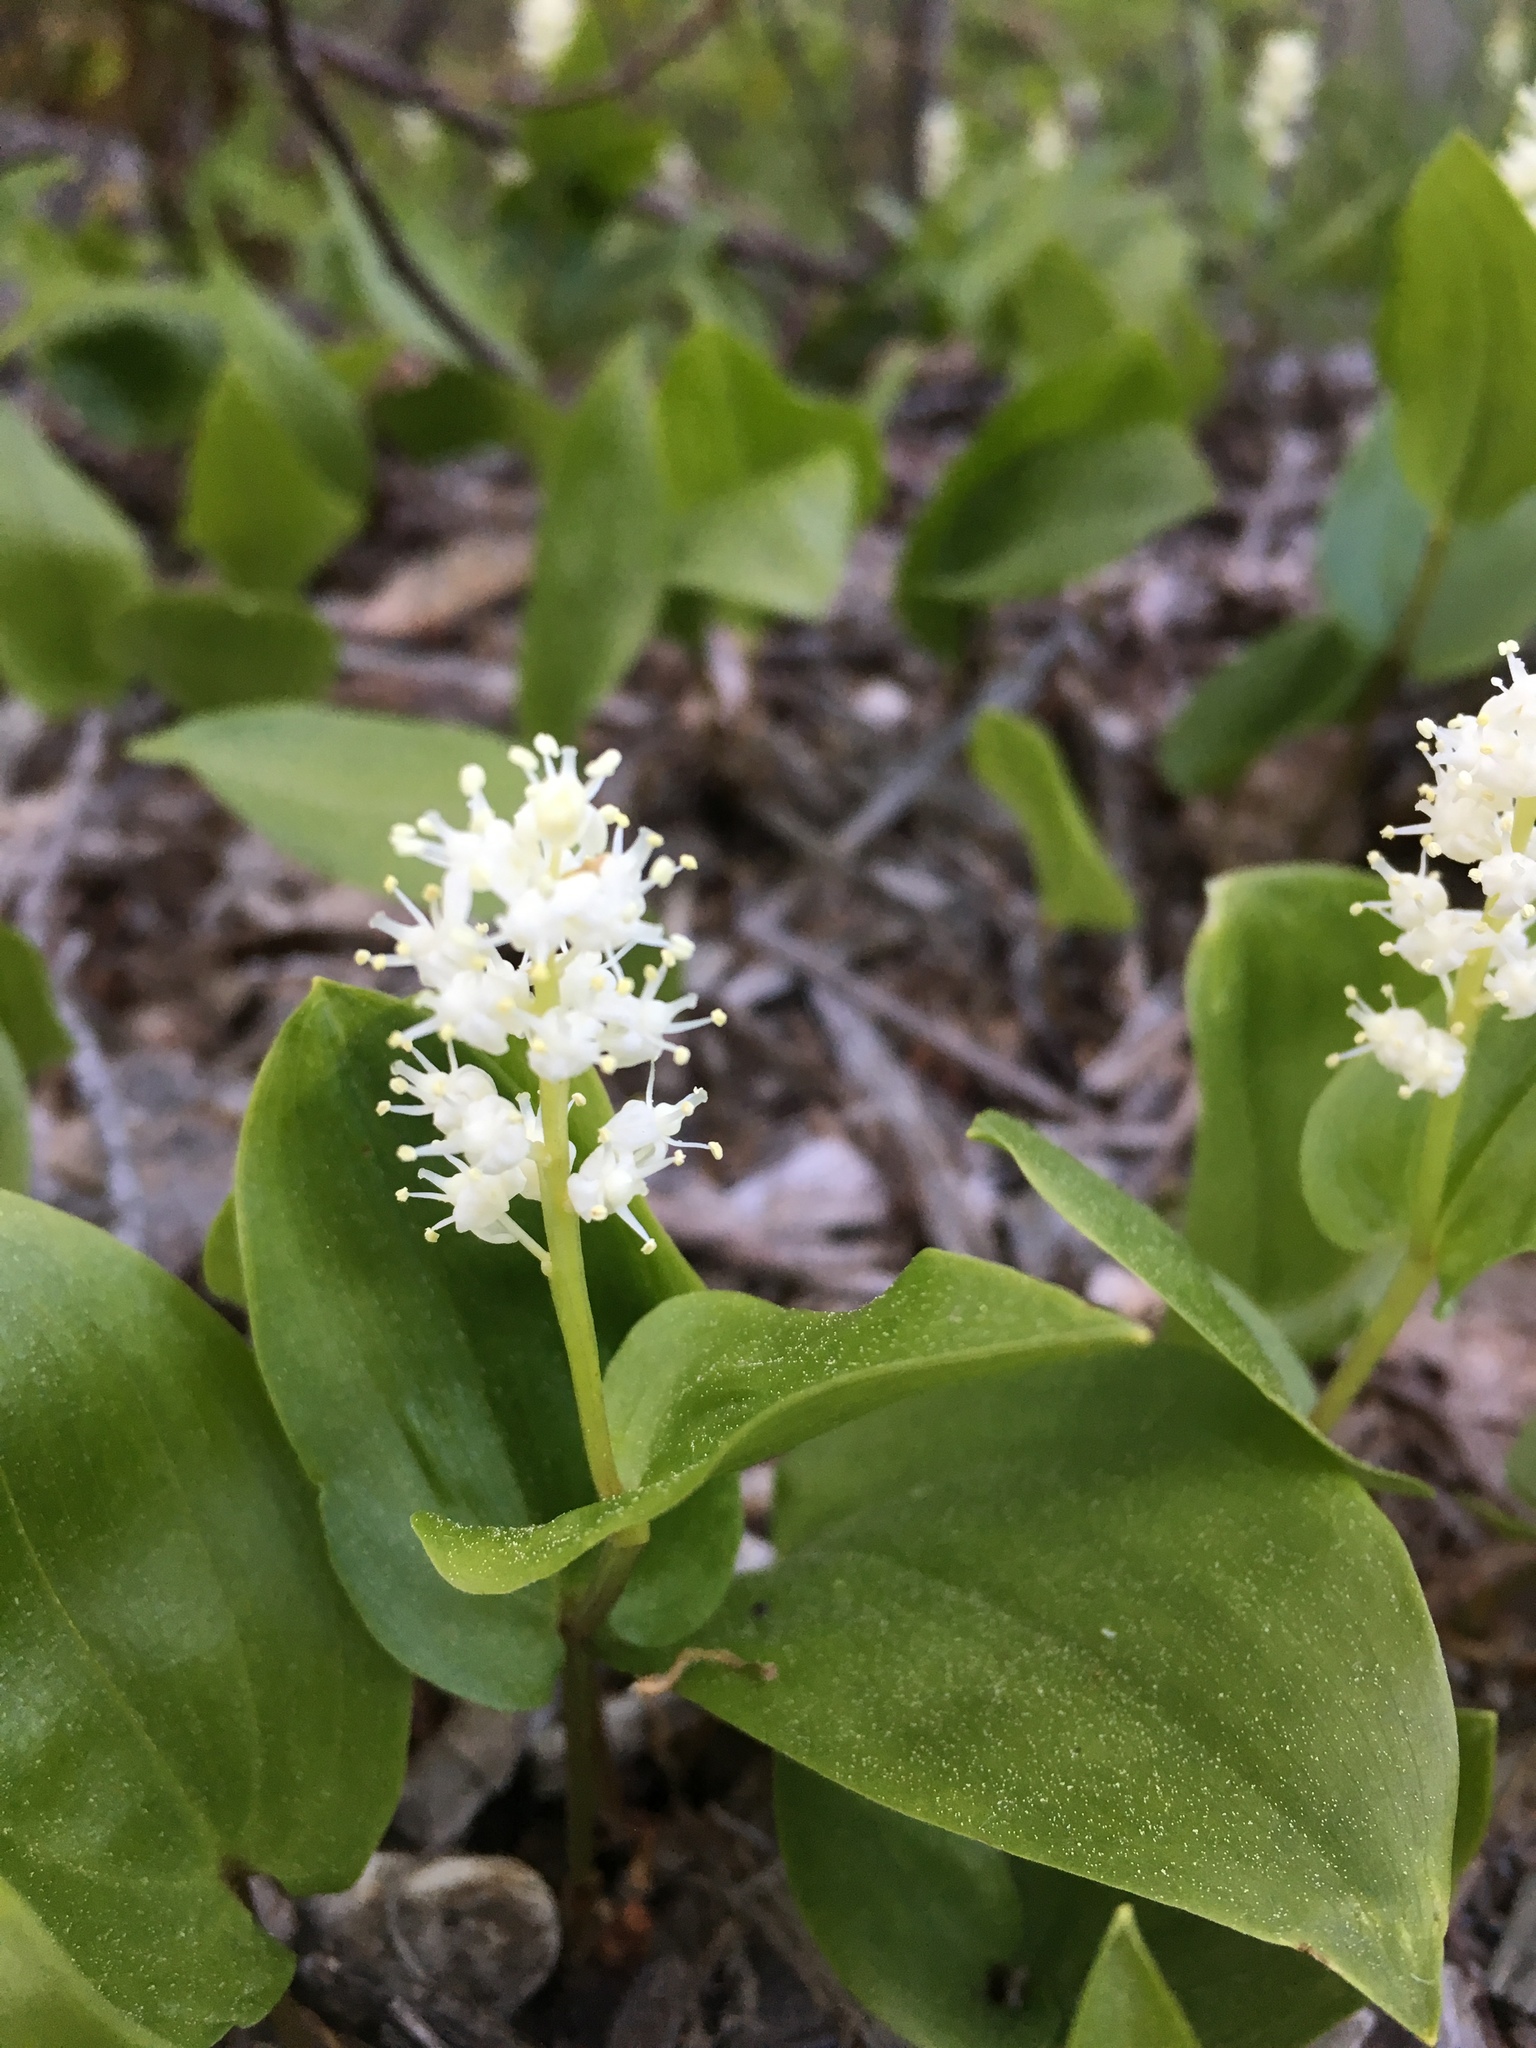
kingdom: Plantae
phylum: Tracheophyta
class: Liliopsida
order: Asparagales
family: Asparagaceae
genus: Maianthemum
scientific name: Maianthemum canadense
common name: False lily-of-the-valley
